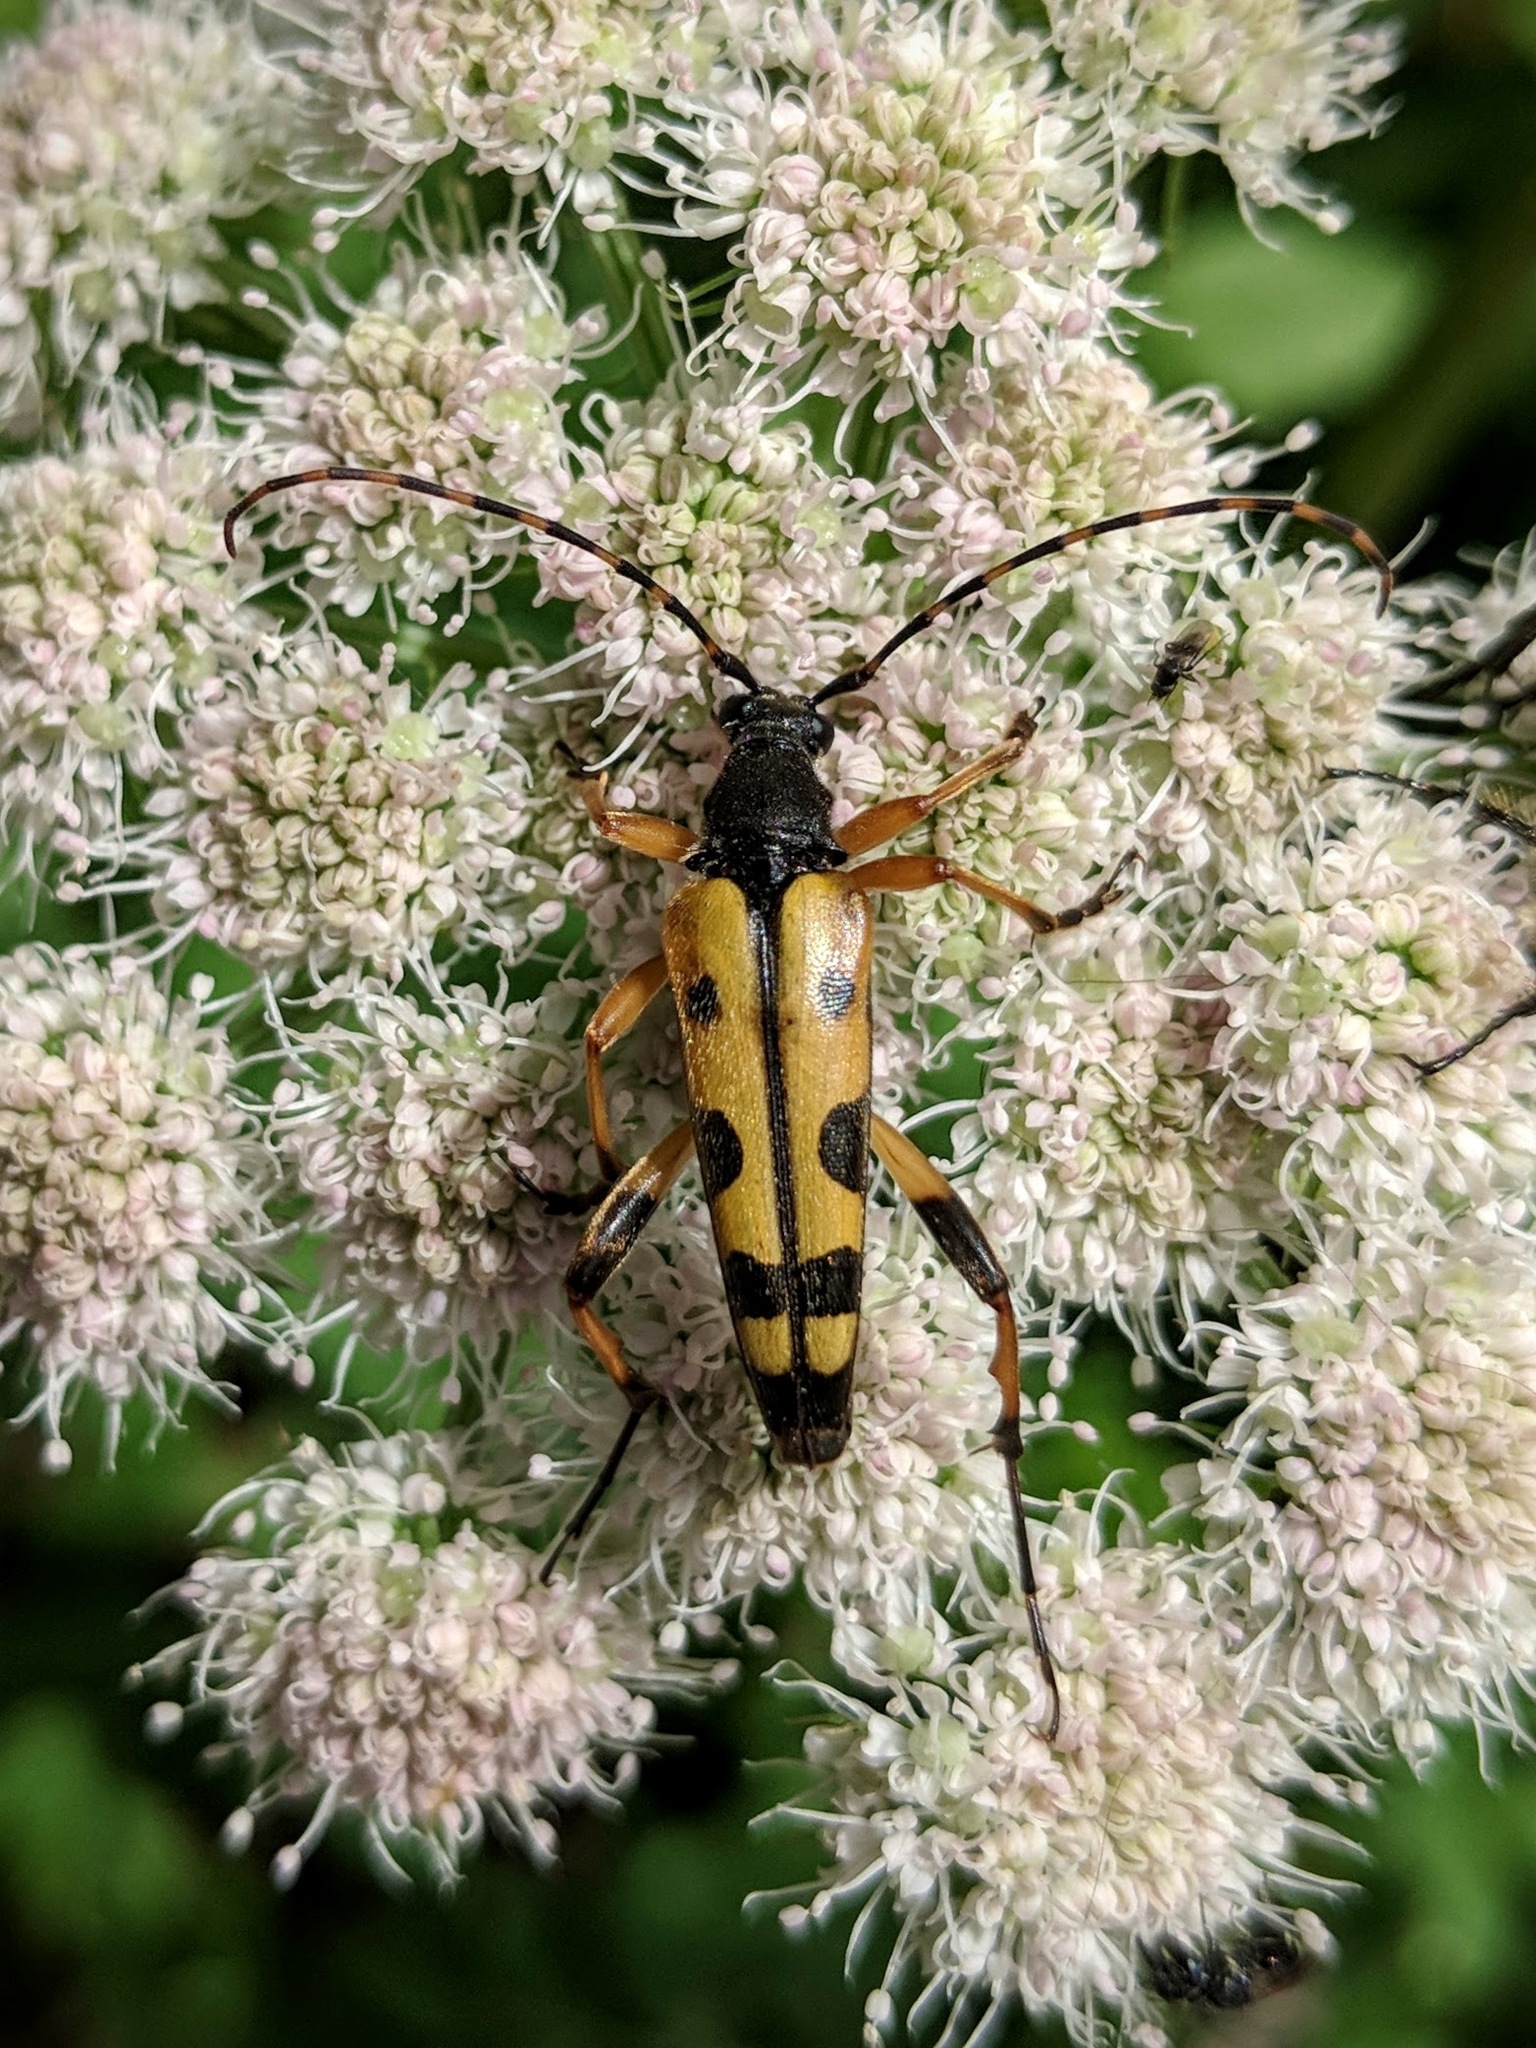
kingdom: Animalia
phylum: Arthropoda
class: Insecta
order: Coleoptera
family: Cerambycidae
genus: Rutpela
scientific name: Rutpela maculata
